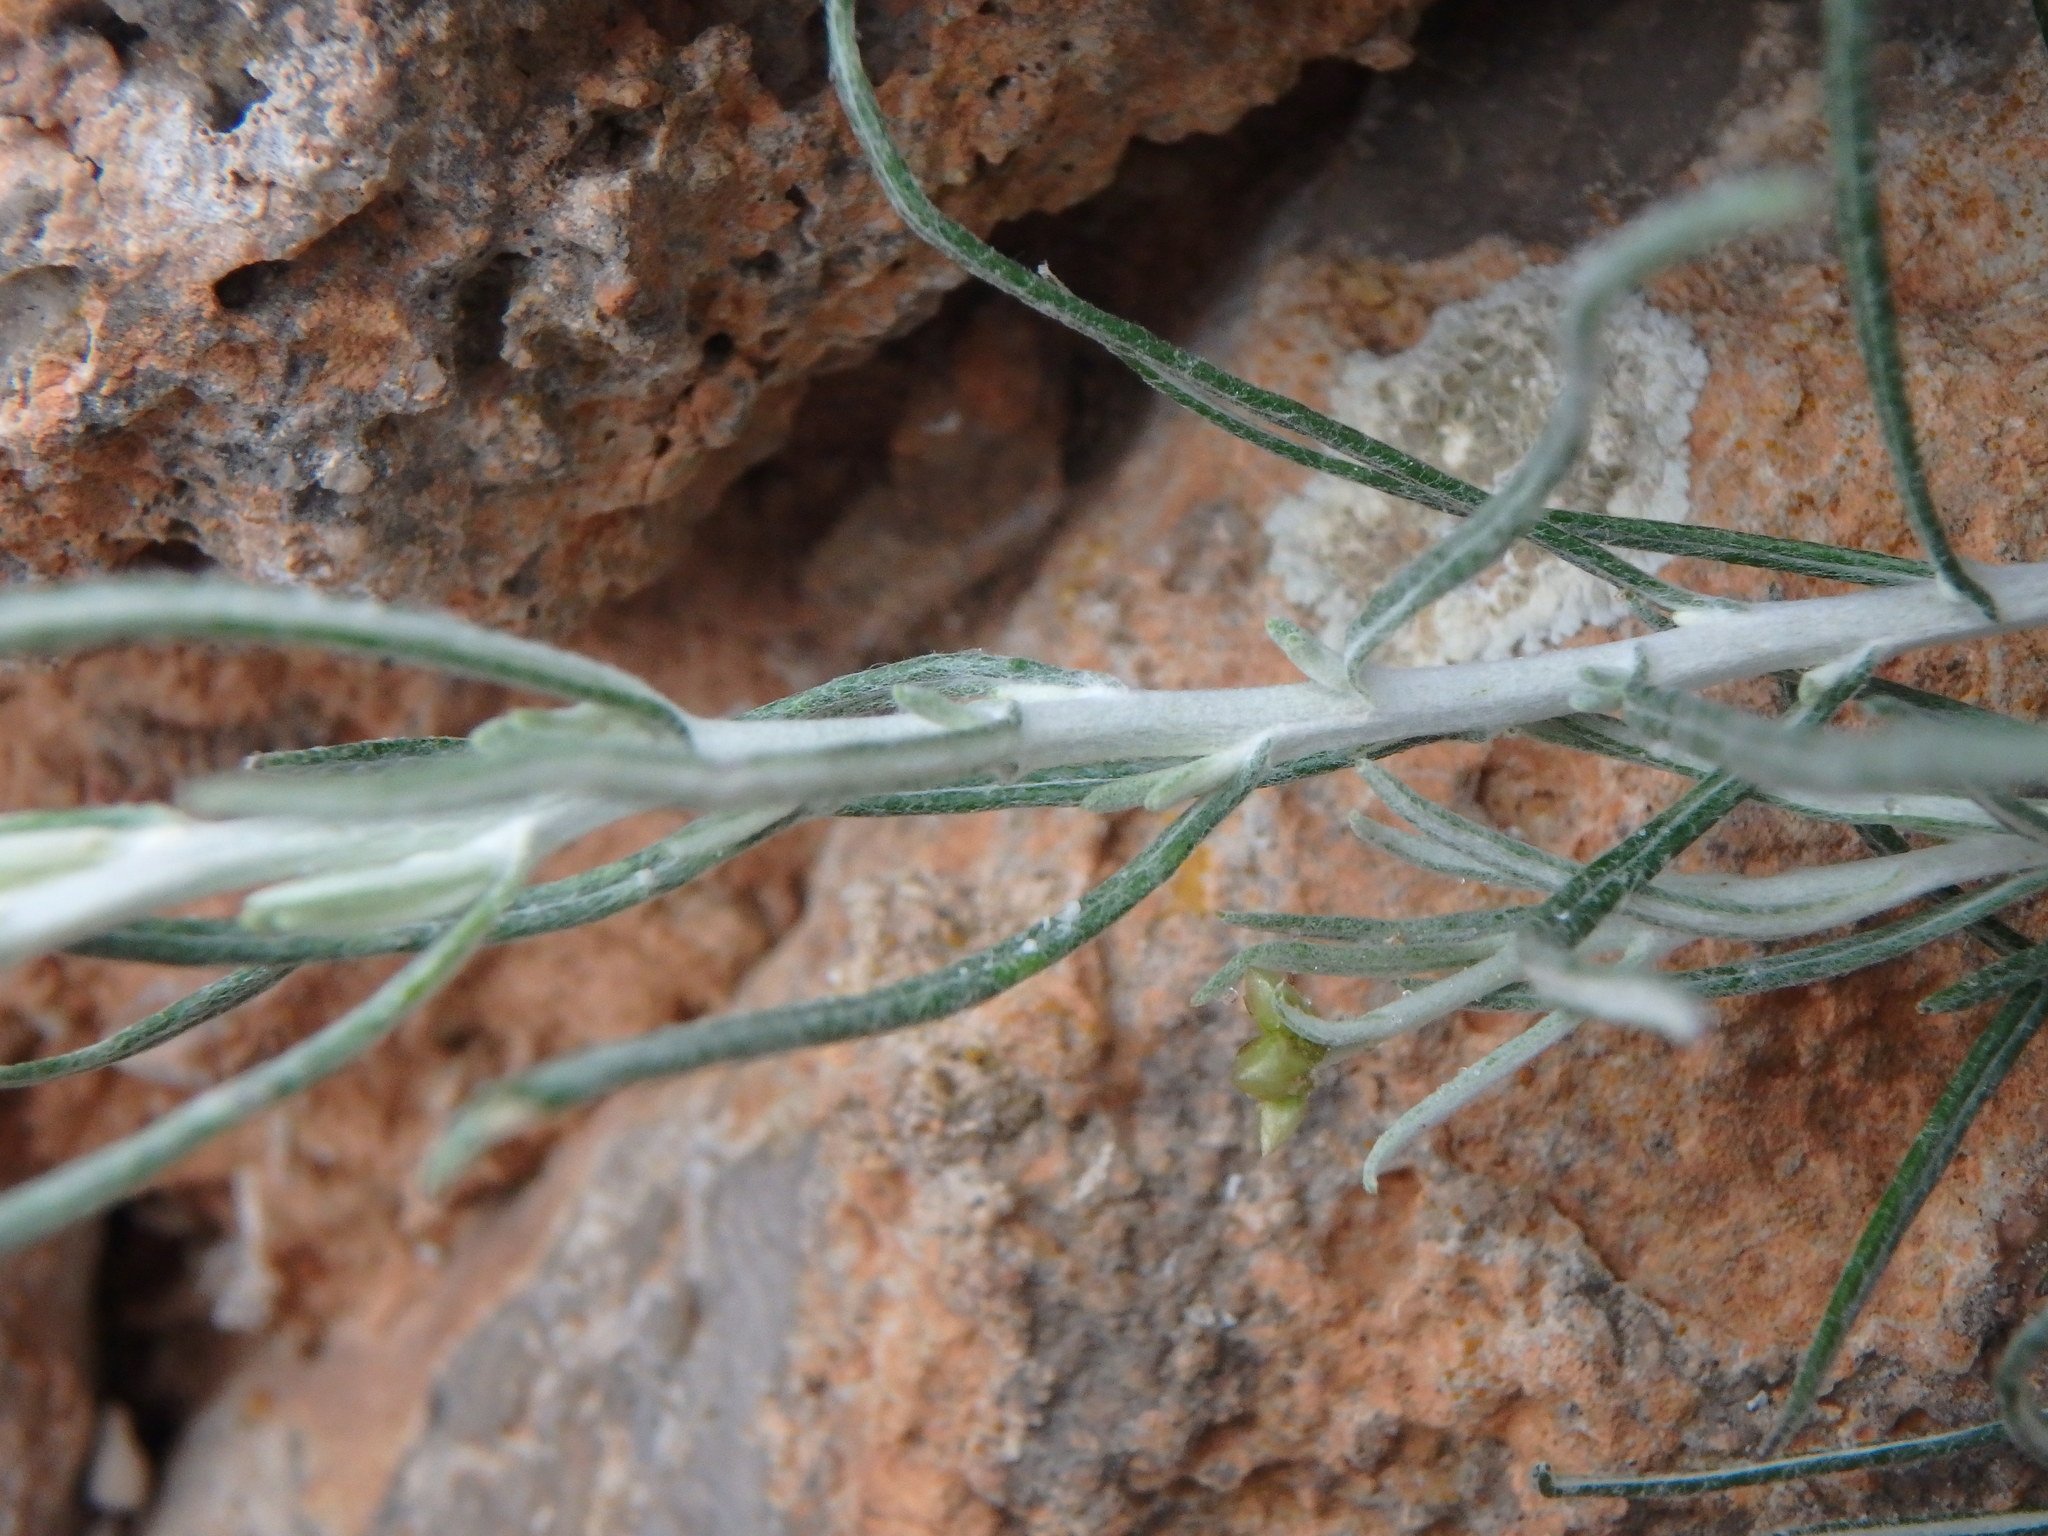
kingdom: Plantae
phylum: Tracheophyta
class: Magnoliopsida
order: Asterales
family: Asteraceae
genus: Phagnalon
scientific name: Phagnalon sordidum
